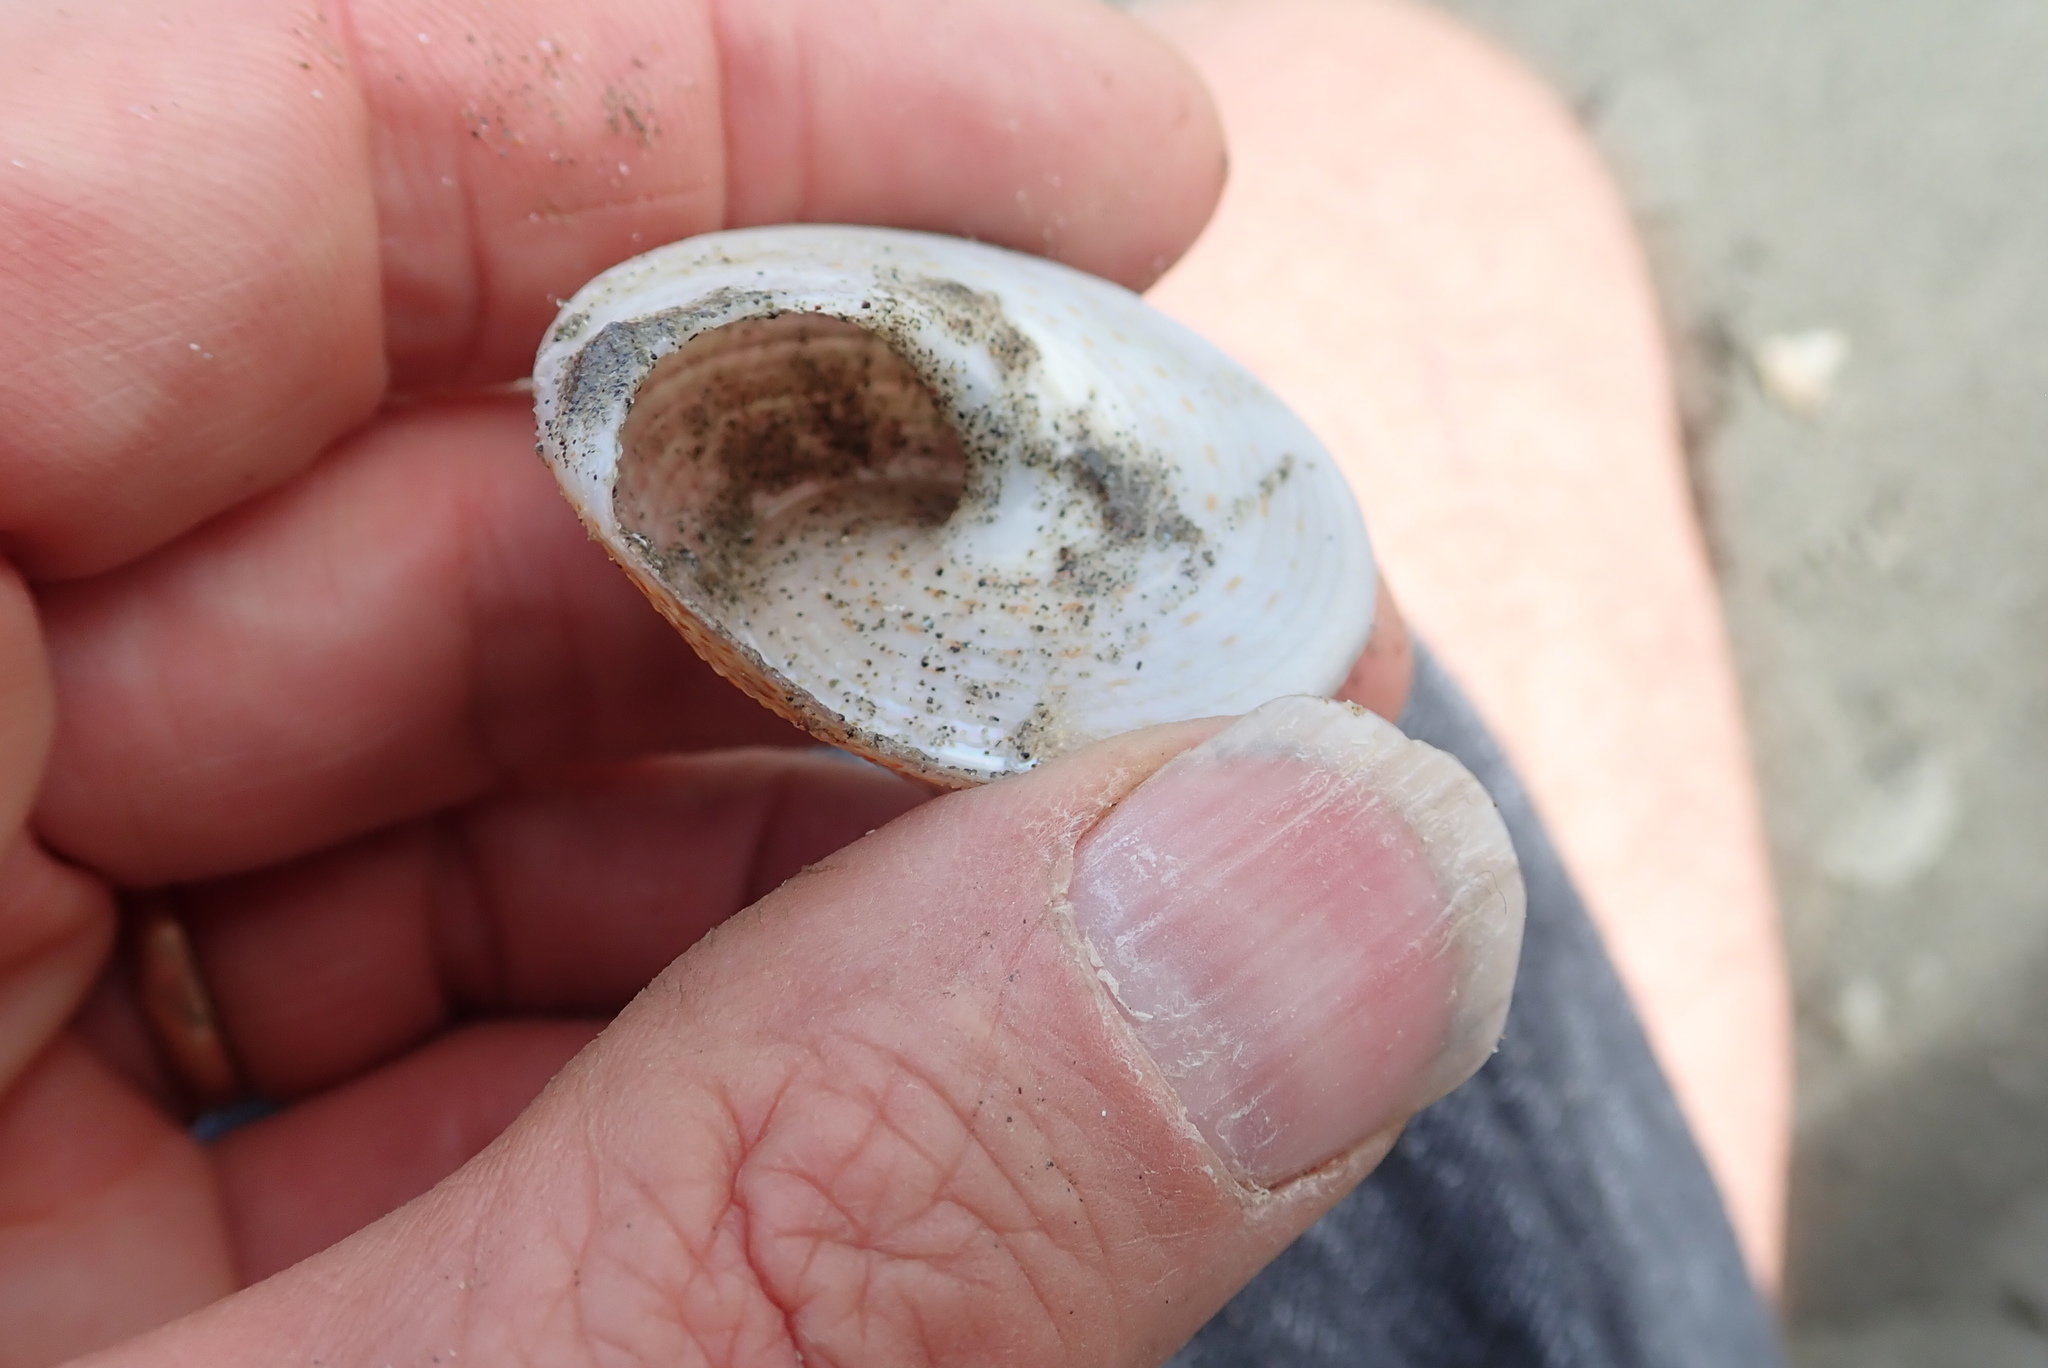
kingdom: Animalia
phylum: Mollusca
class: Gastropoda
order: Trochida
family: Calliostomatidae
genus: Maurea
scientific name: Maurea selecta
